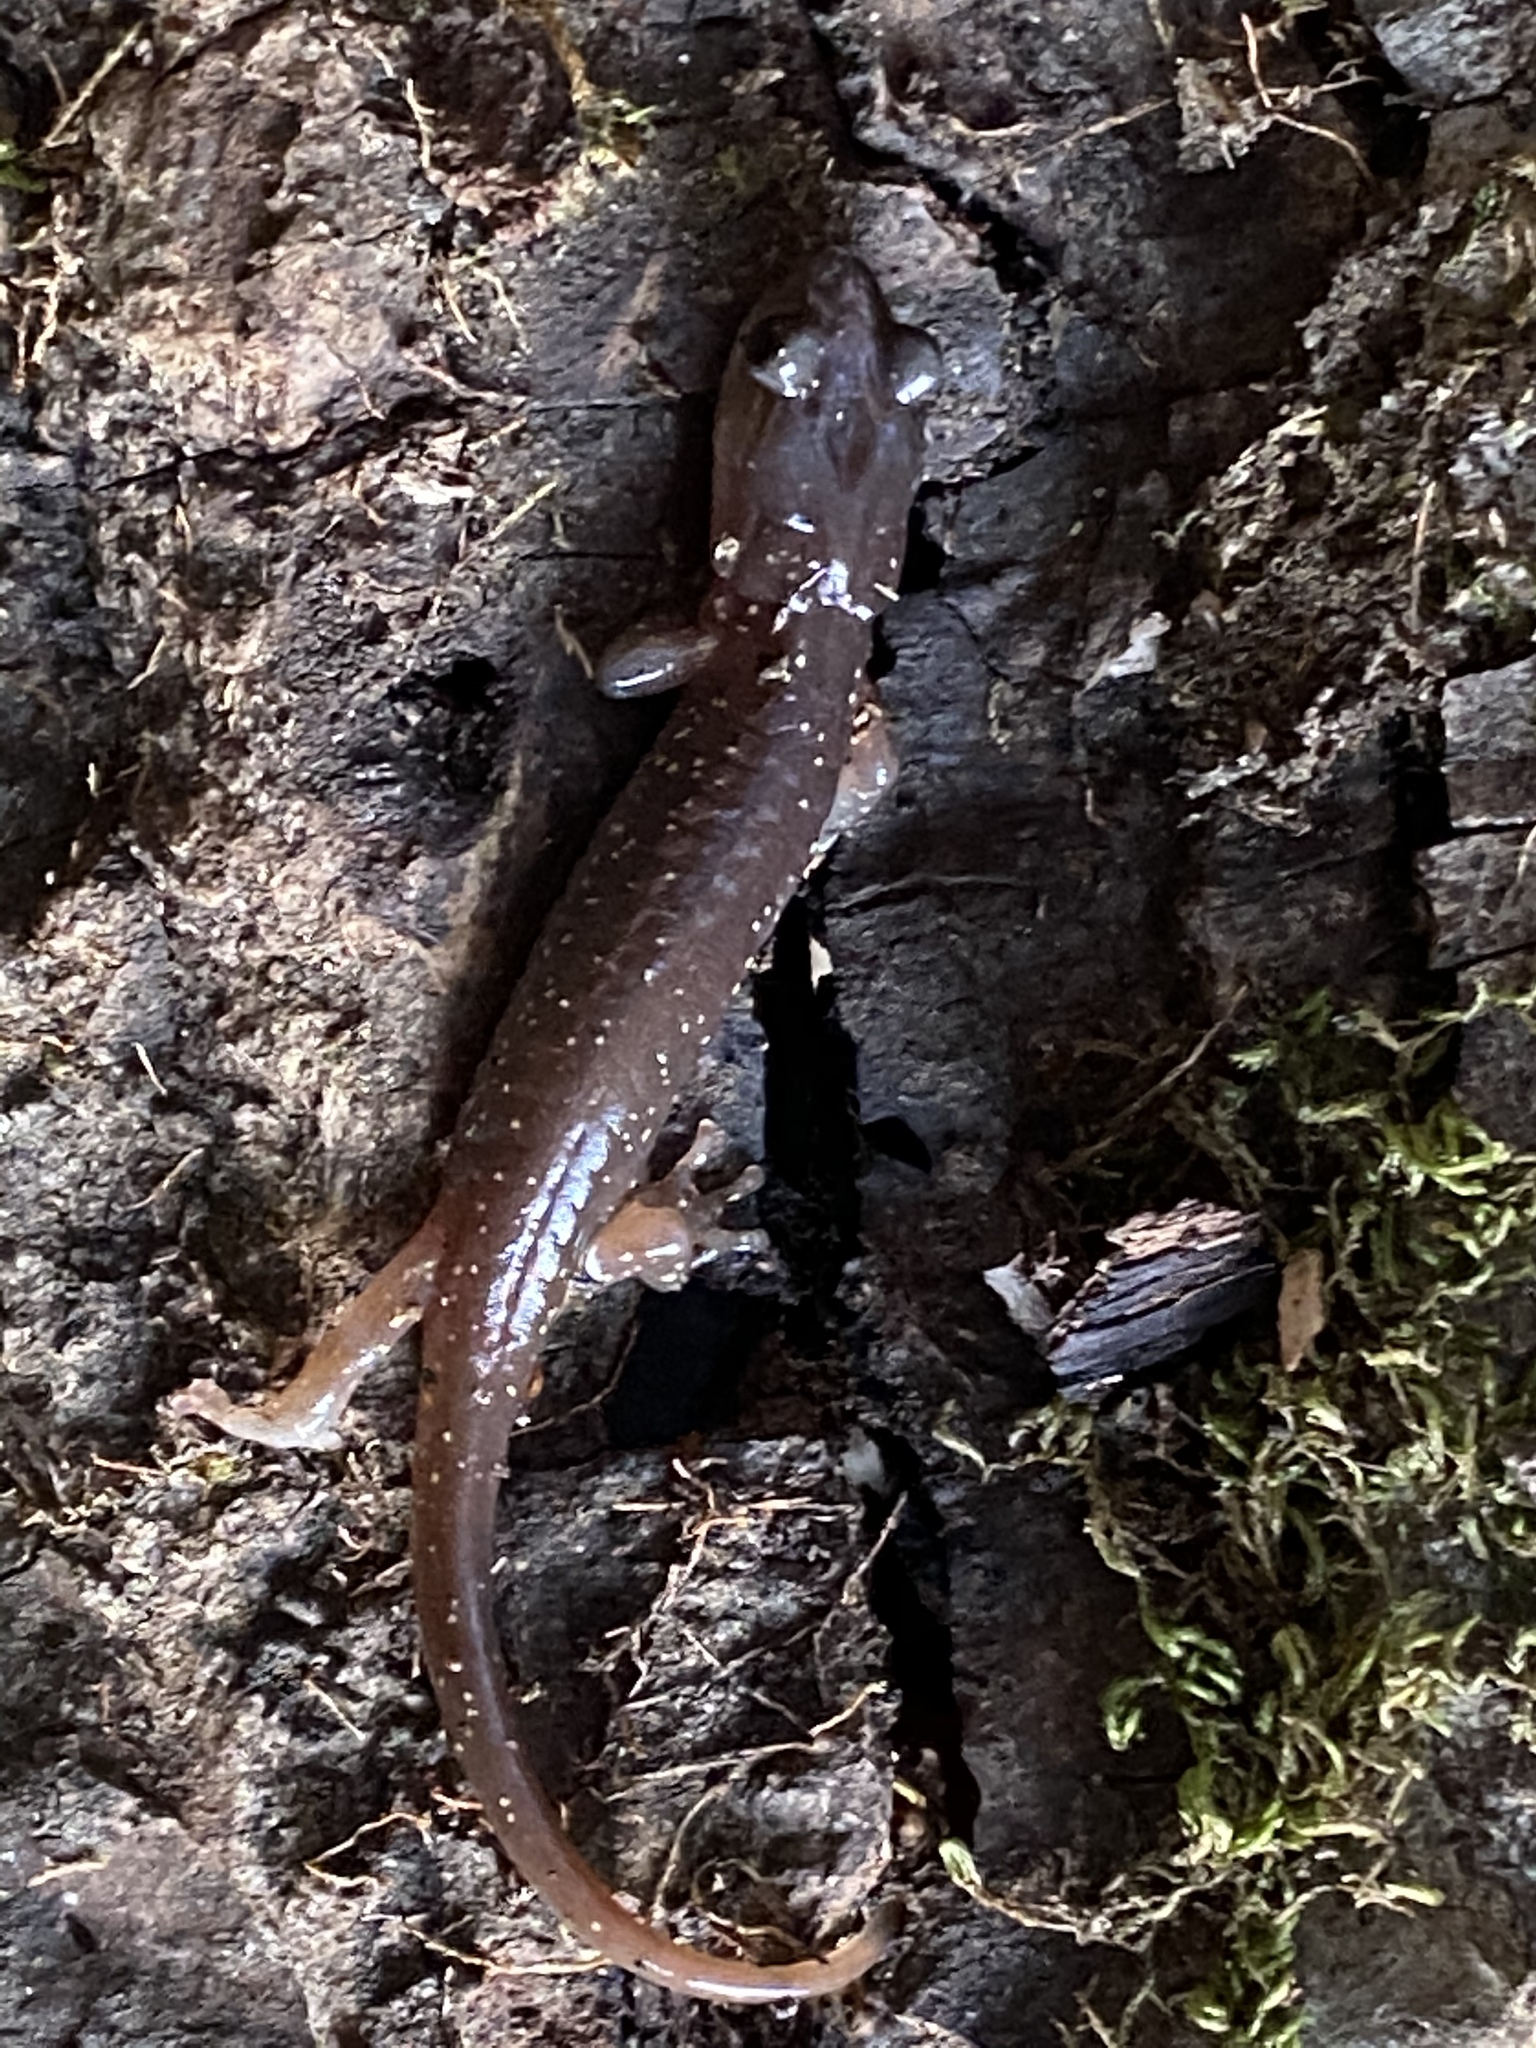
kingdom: Animalia
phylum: Chordata
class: Amphibia
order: Caudata
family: Plethodontidae
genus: Aneides
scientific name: Aneides lugubris
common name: Arboreal salamander
